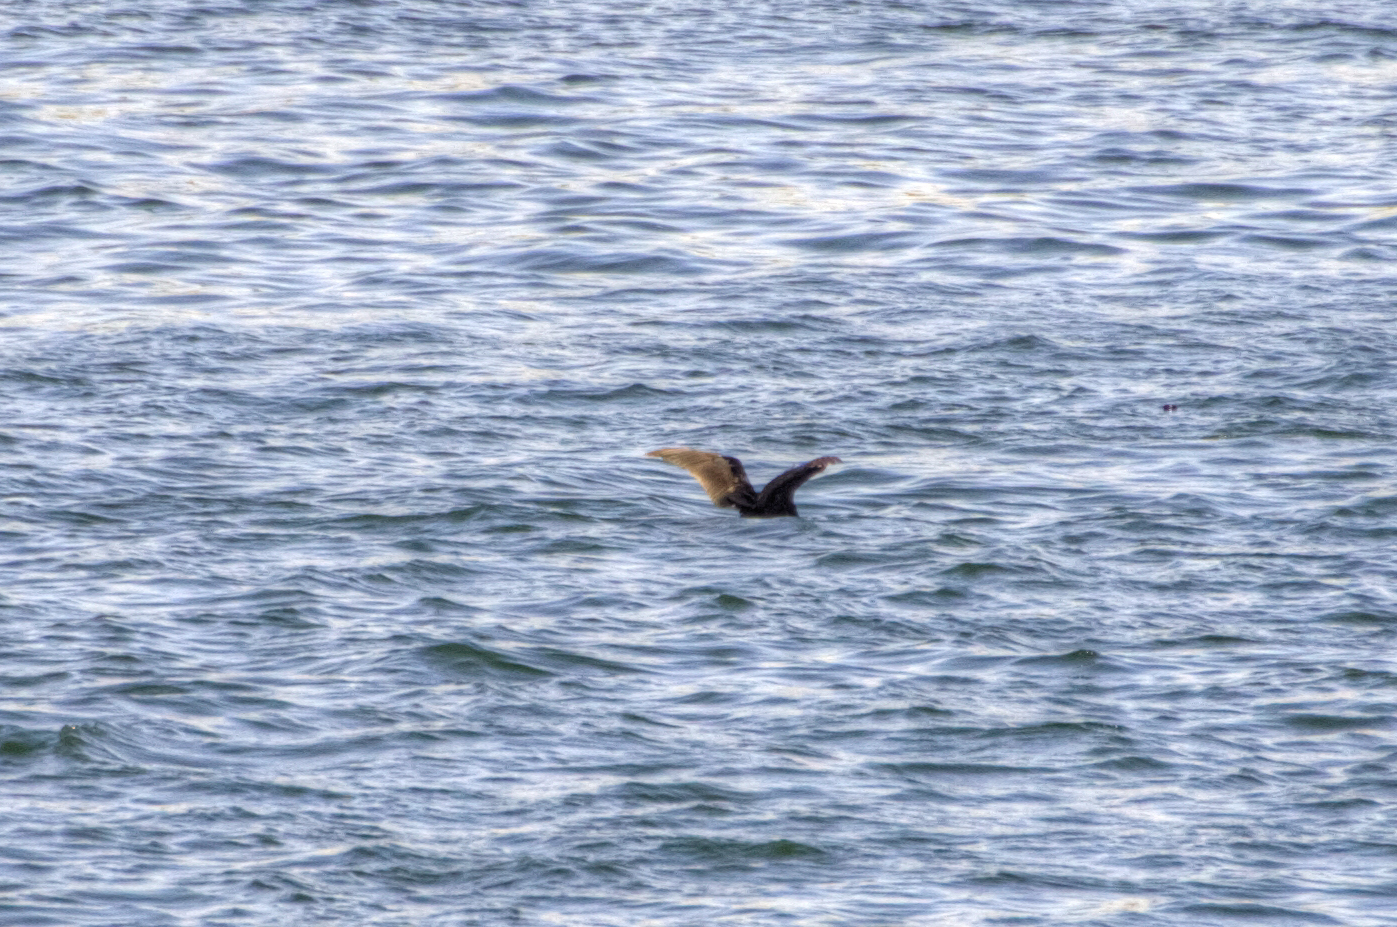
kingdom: Animalia
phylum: Chordata
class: Aves
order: Suliformes
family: Phalacrocoracidae
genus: Phalacrocorax
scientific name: Phalacrocorax carbo
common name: Great cormorant
